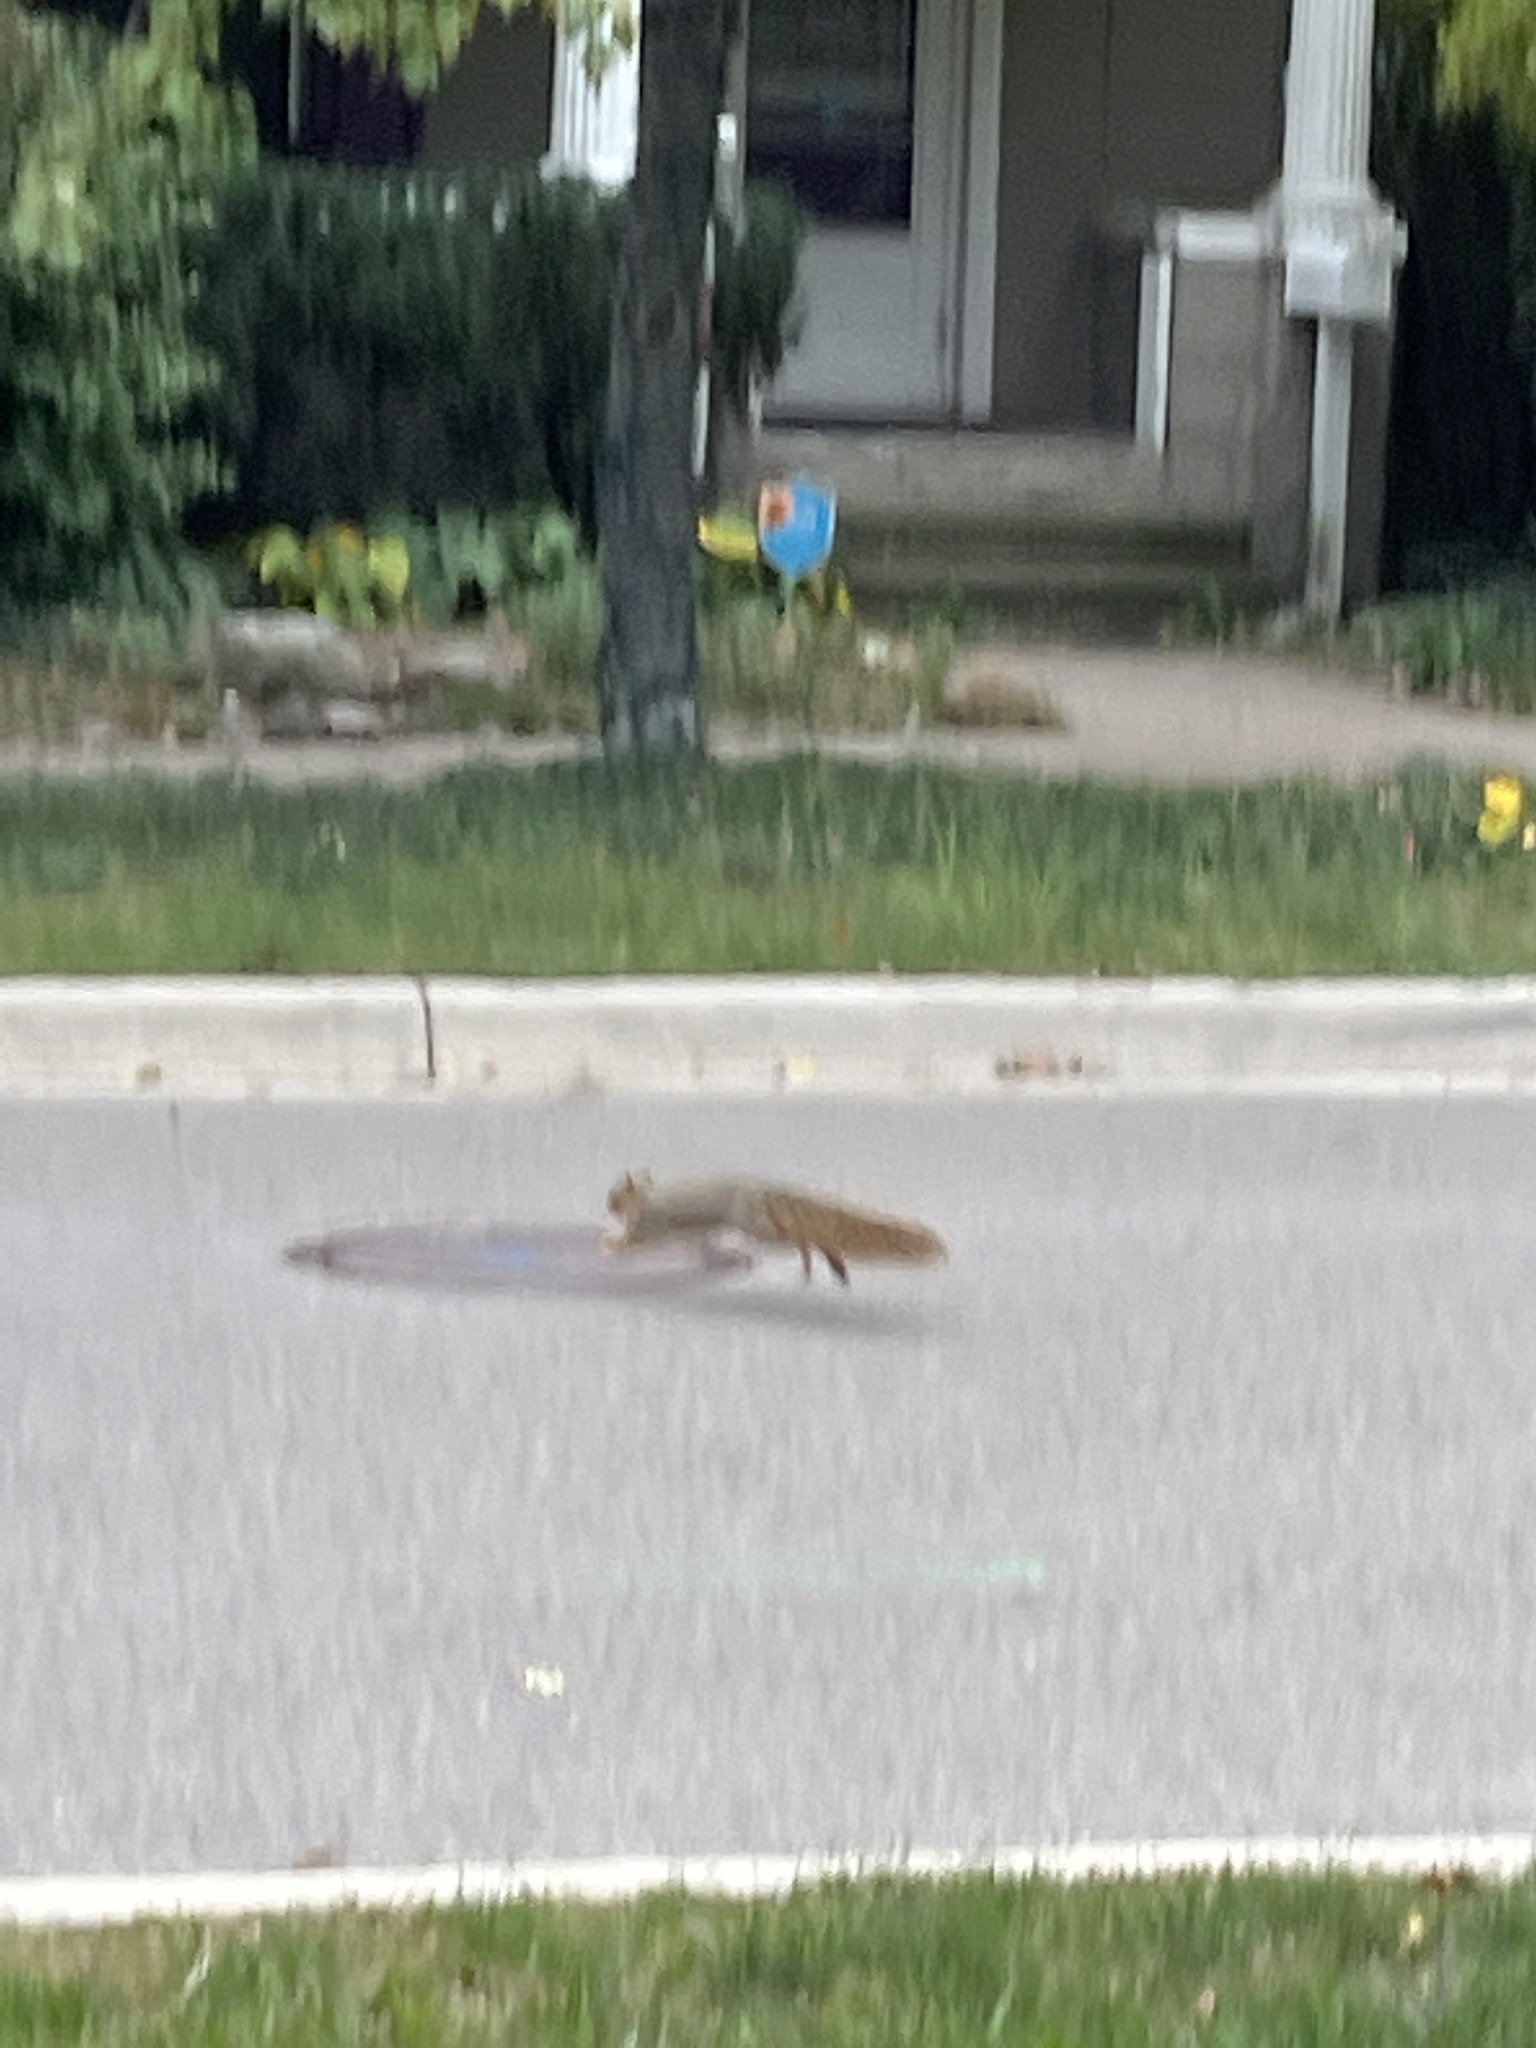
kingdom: Animalia
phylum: Chordata
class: Mammalia
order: Rodentia
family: Sciuridae
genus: Sciurus
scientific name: Sciurus niger
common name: Fox squirrel
